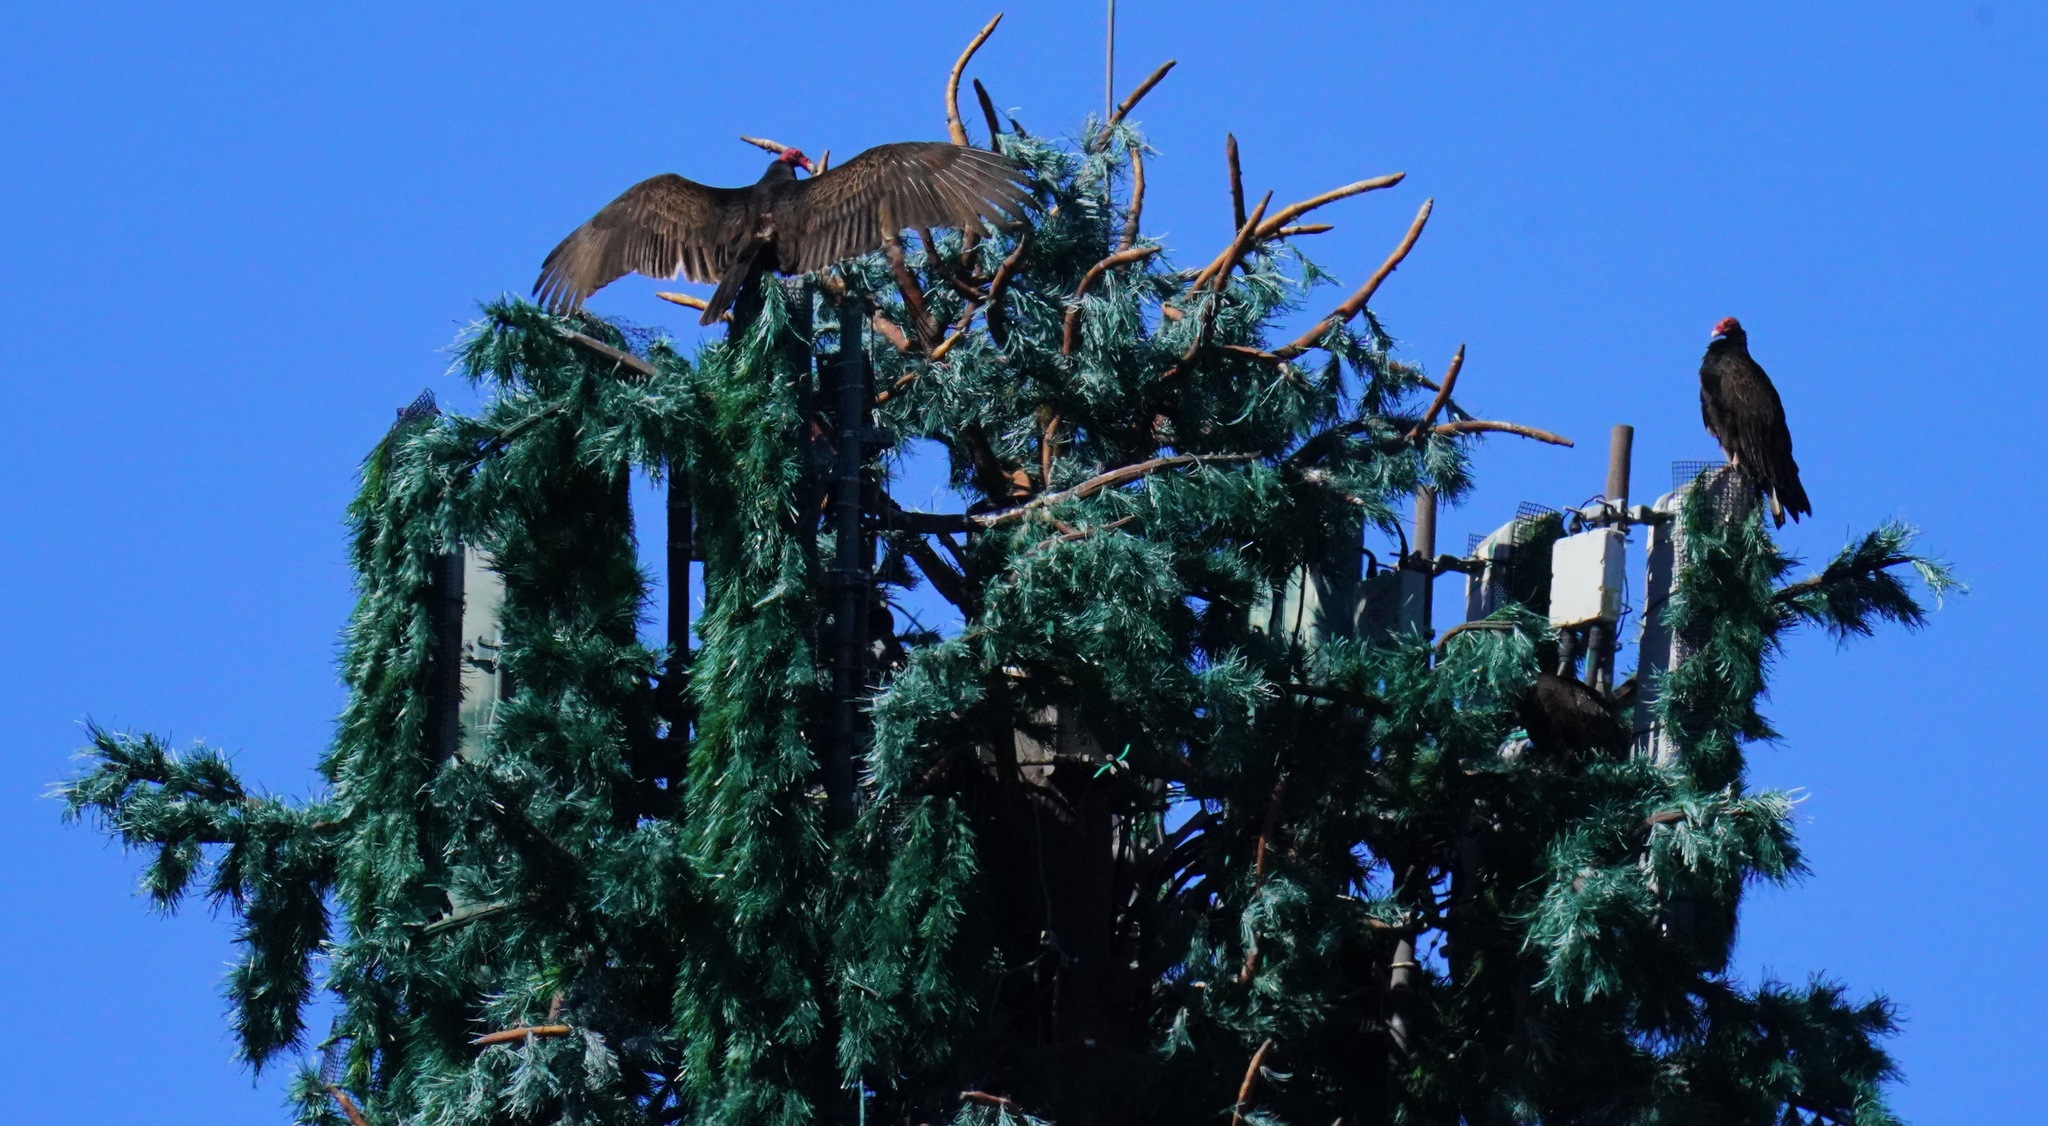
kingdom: Animalia
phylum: Chordata
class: Aves
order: Accipitriformes
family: Cathartidae
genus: Cathartes
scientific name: Cathartes aura
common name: Turkey vulture
